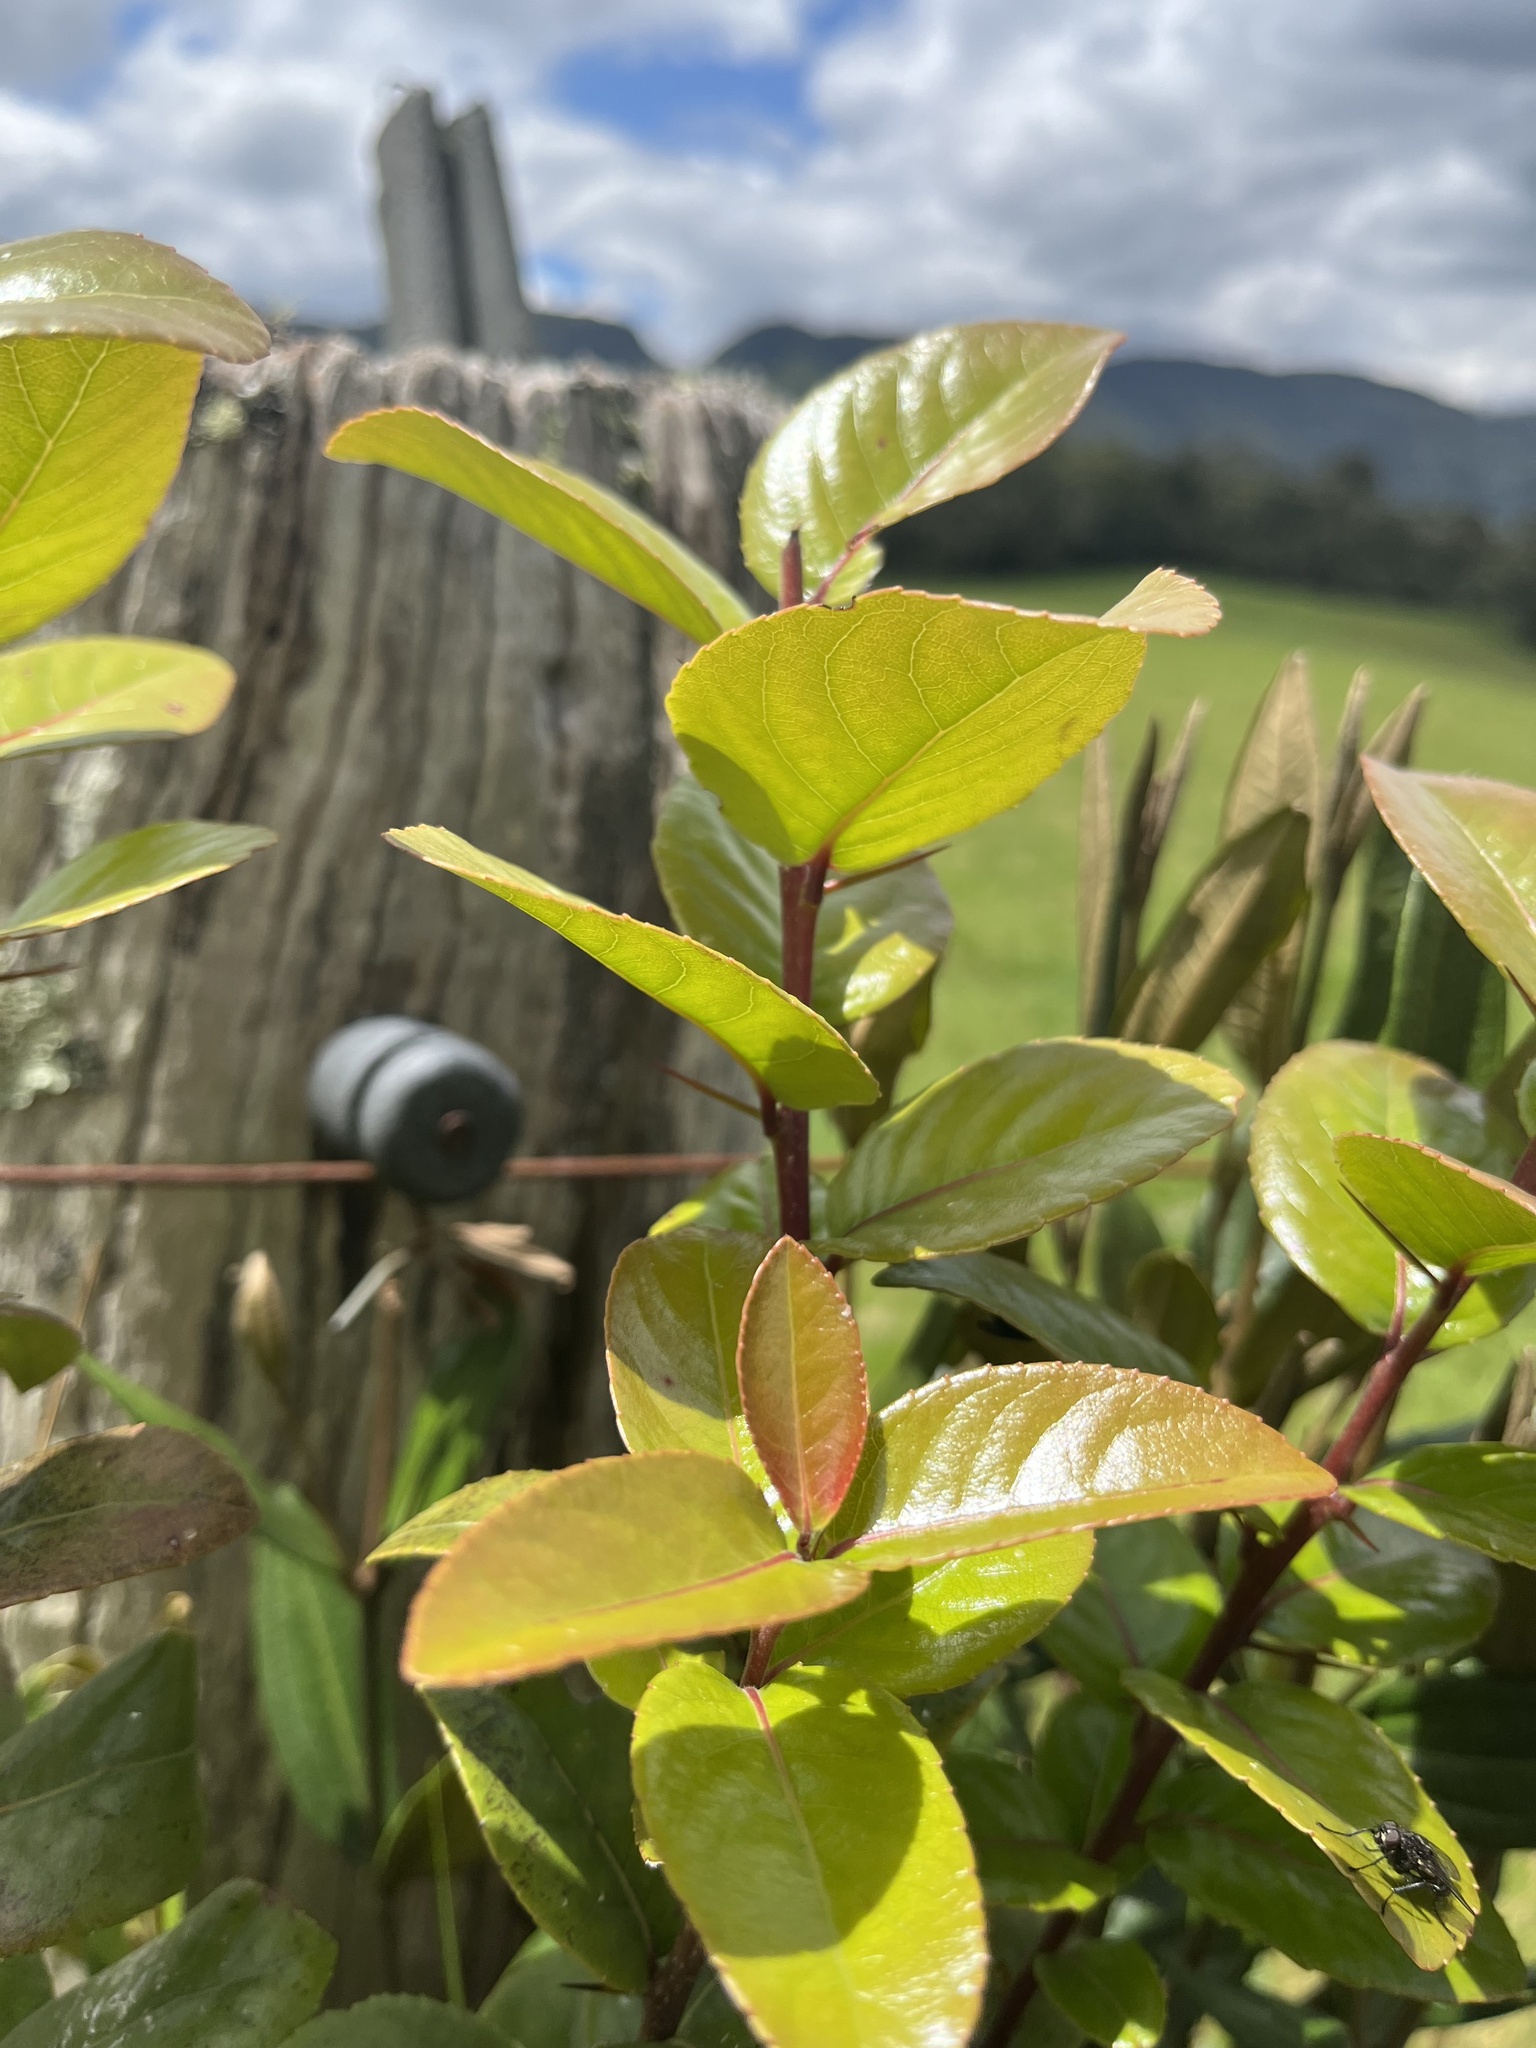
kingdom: Plantae
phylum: Tracheophyta
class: Magnoliopsida
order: Malpighiales
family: Salicaceae
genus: Xylosma
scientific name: Xylosma spiculifera
